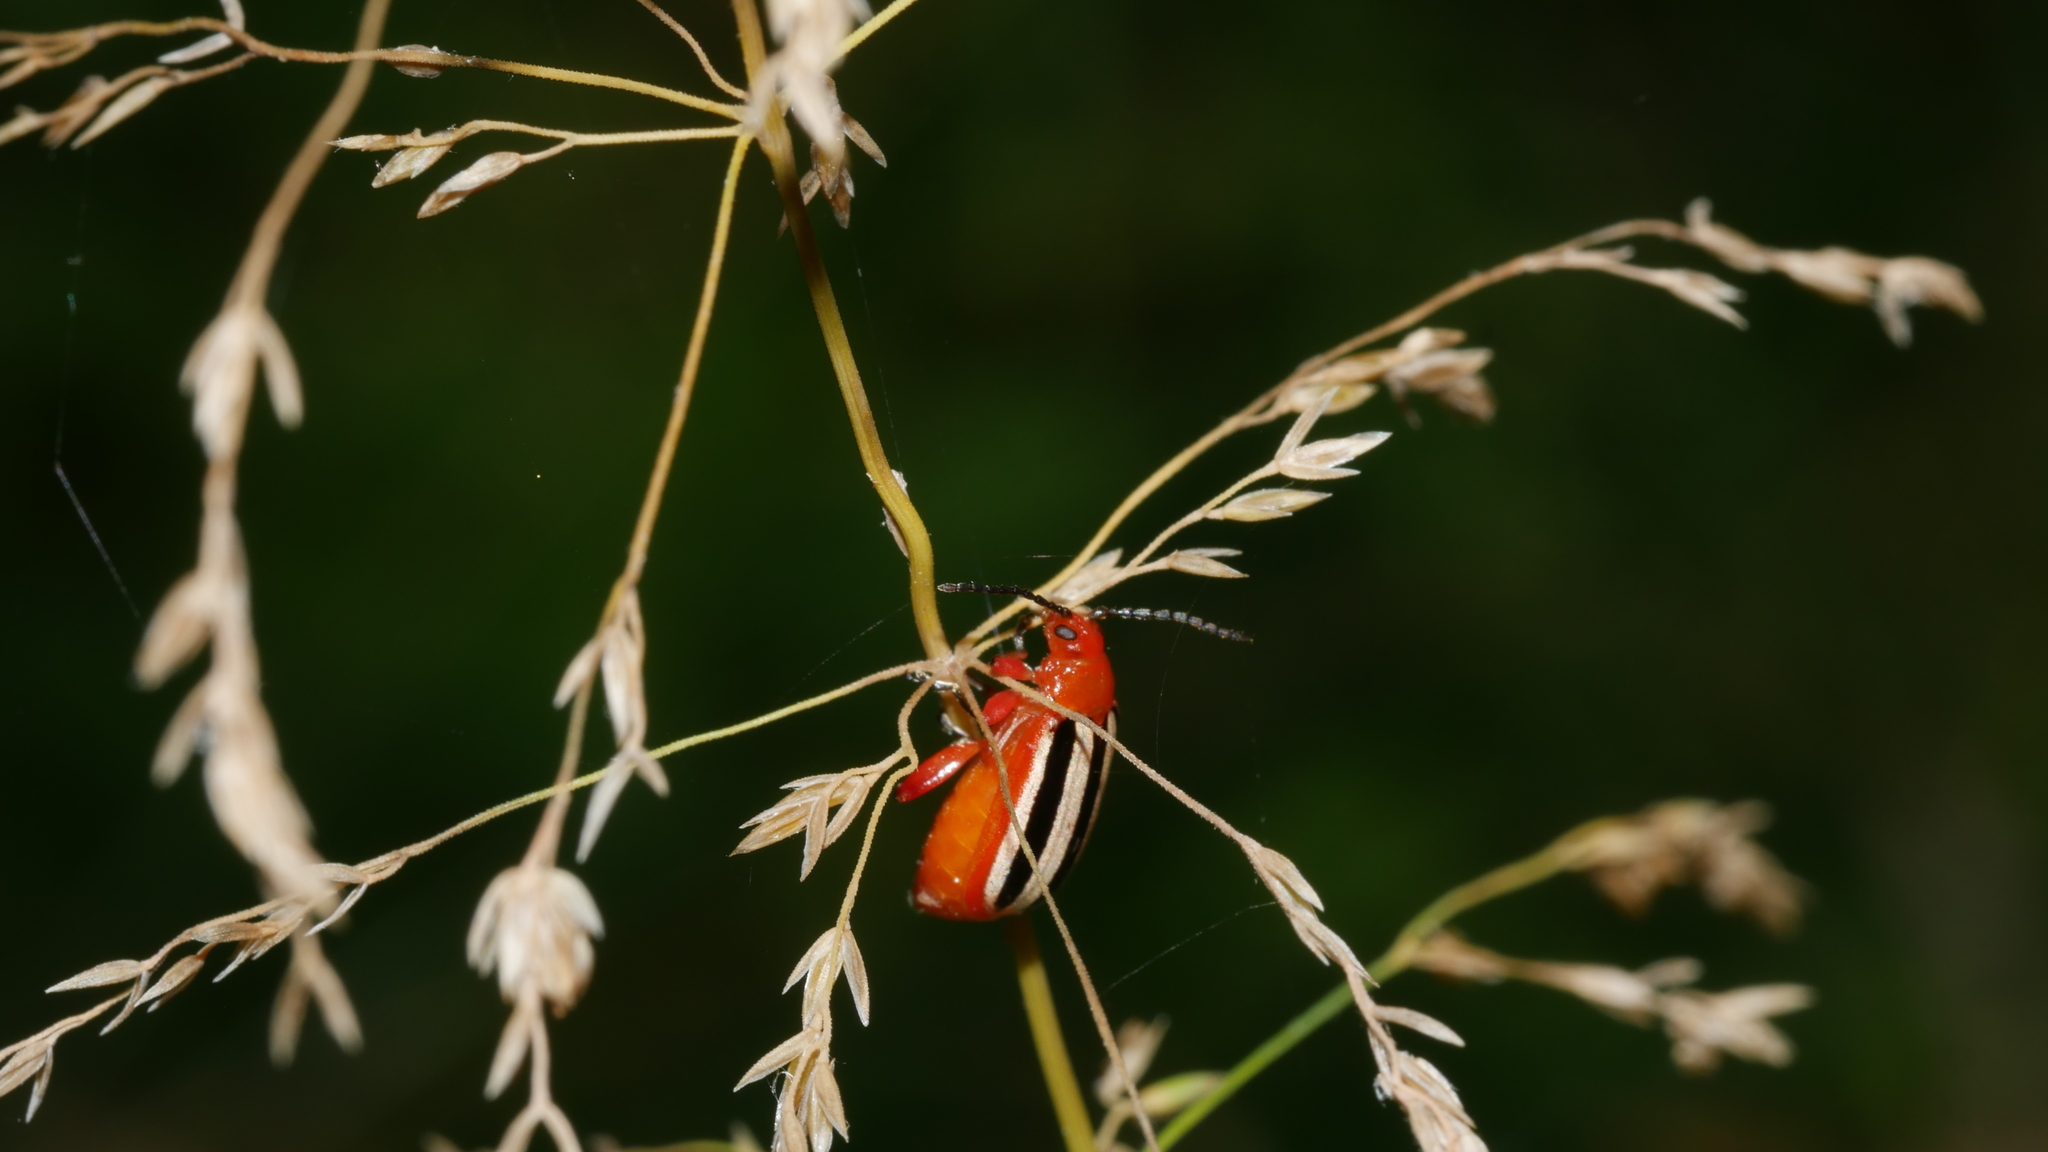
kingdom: Animalia
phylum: Arthropoda
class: Insecta
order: Coleoptera
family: Chrysomelidae
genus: Disonycha
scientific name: Disonycha discoidea
